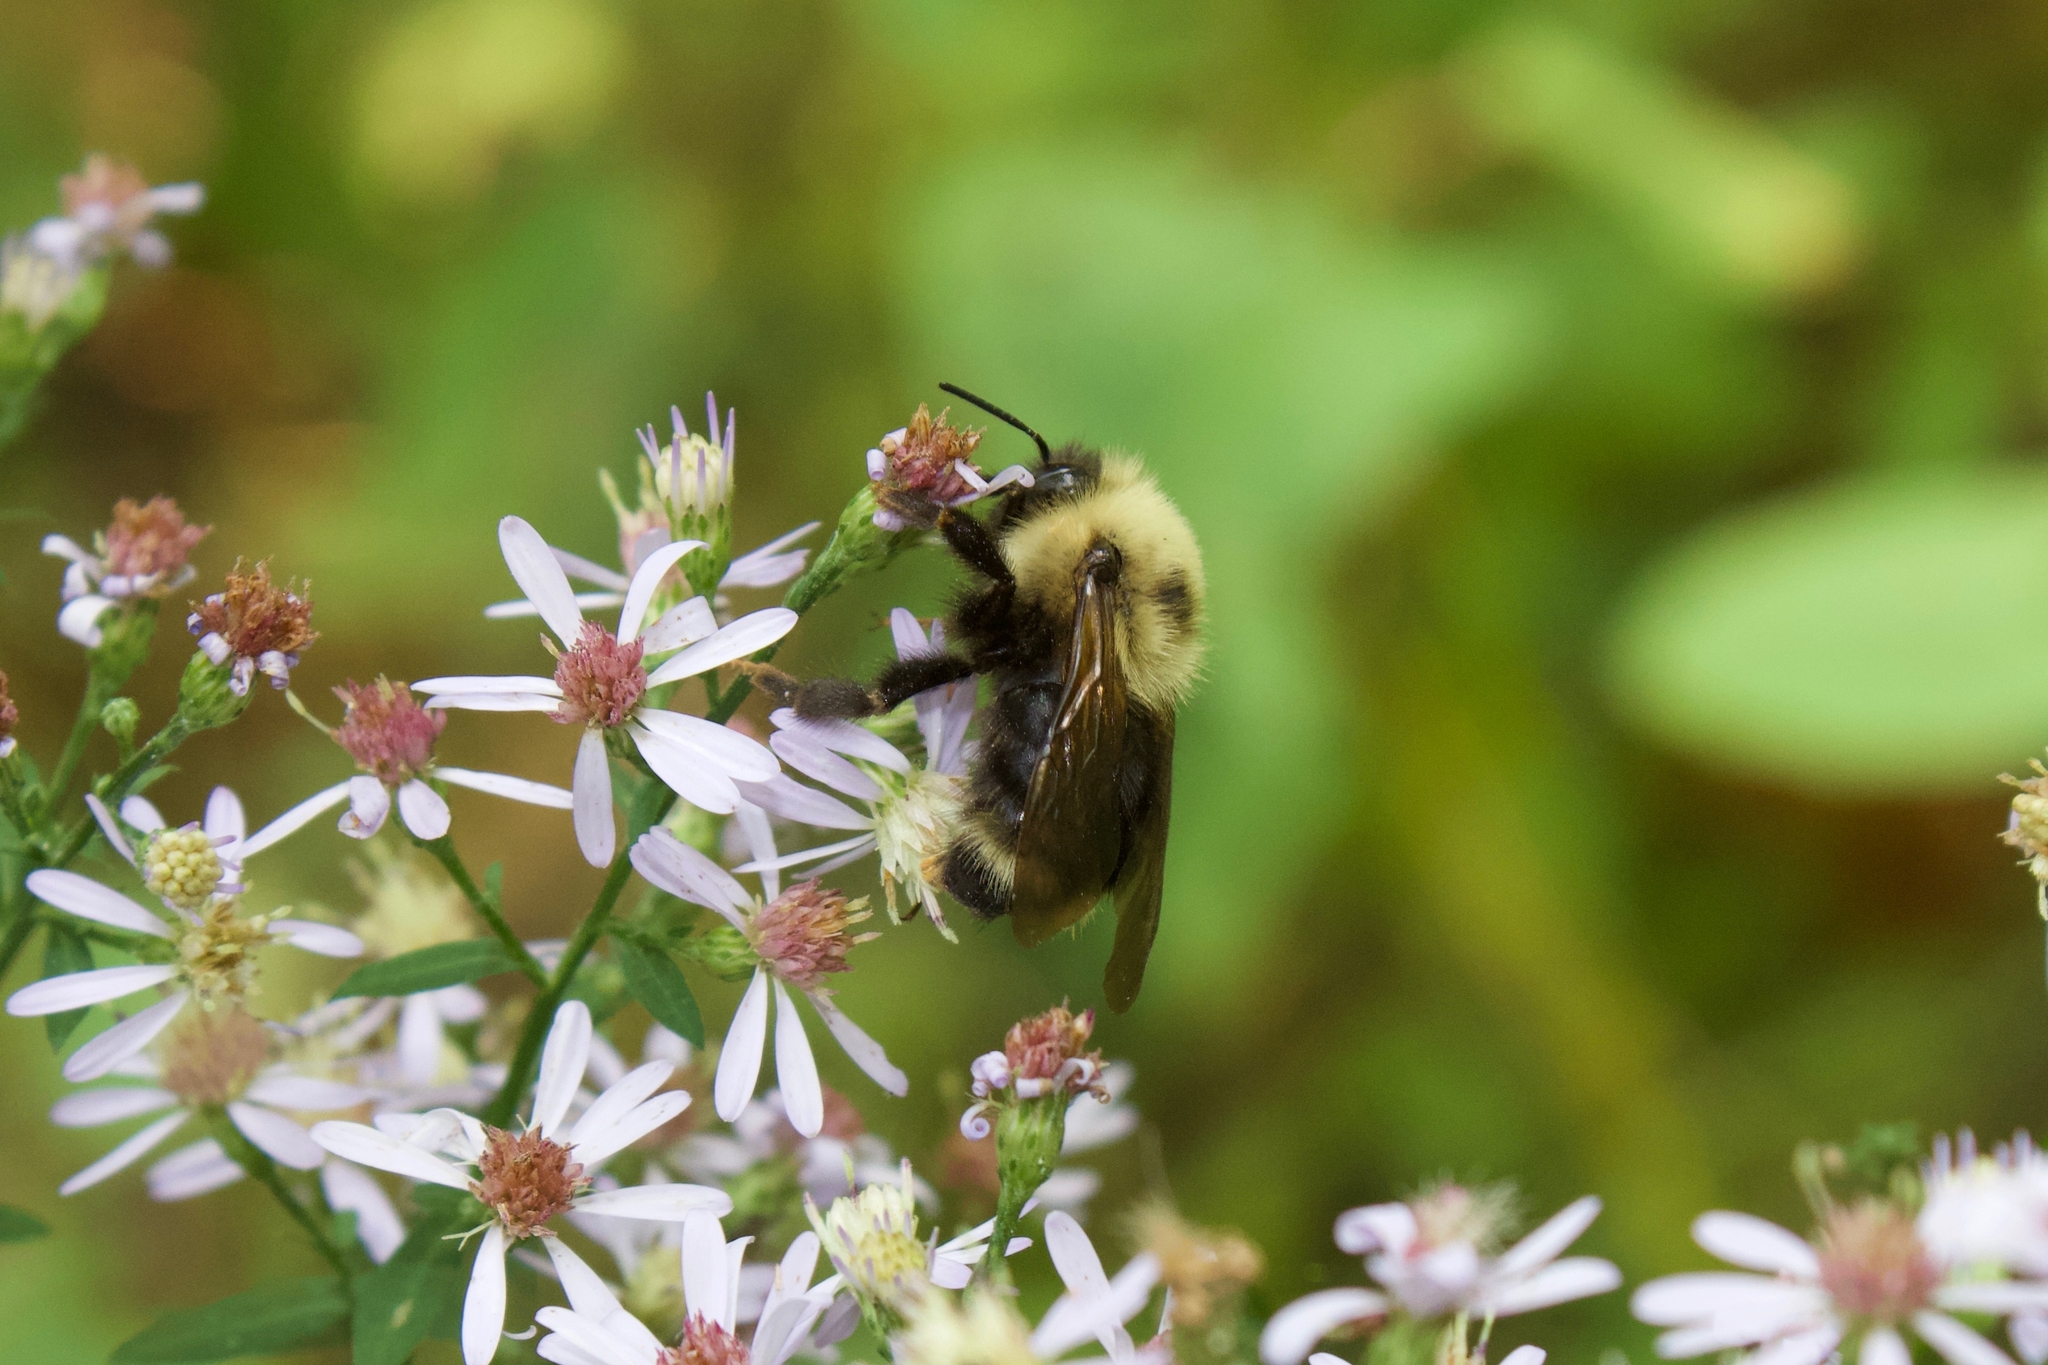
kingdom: Animalia
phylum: Arthropoda
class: Insecta
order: Hymenoptera
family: Apidae
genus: Bombus
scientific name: Bombus flavidus
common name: Fernald cuckoo bumble bee
